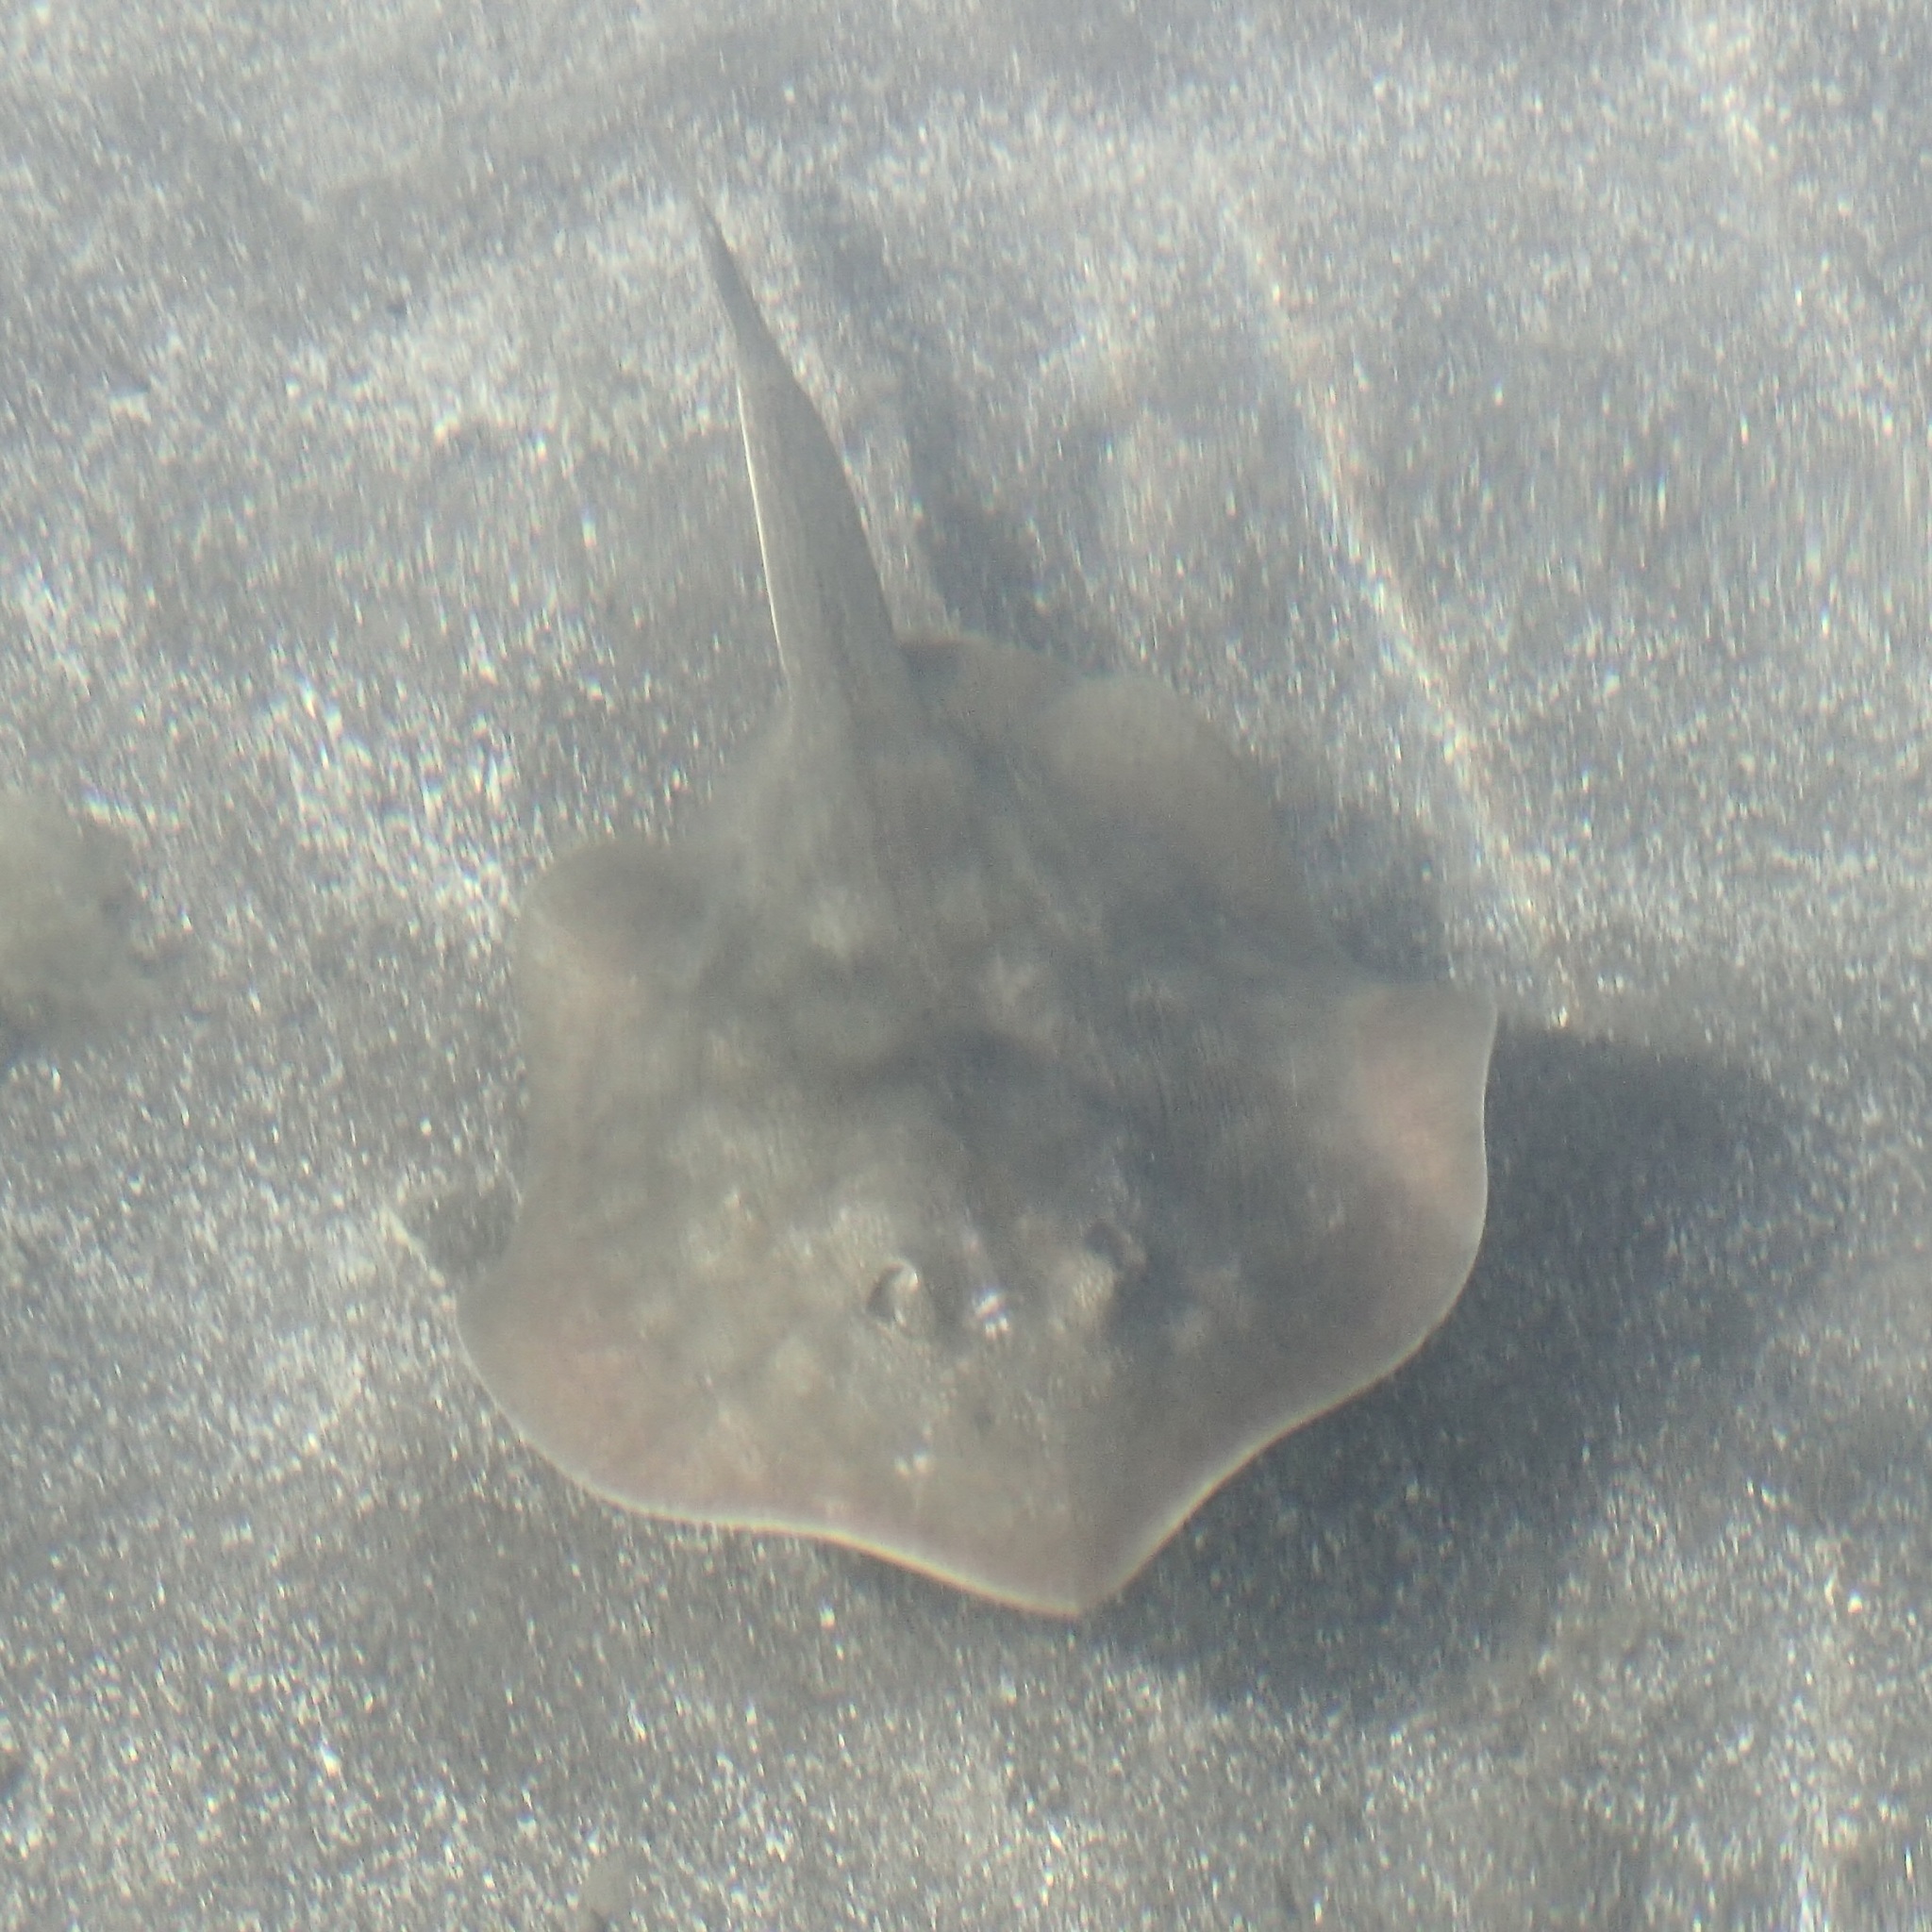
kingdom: Animalia
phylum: Chordata
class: Elasmobranchii
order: Myliobatiformes
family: Urolophidae
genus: Urolophus
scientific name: Urolophus halleri
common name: Round stingray
